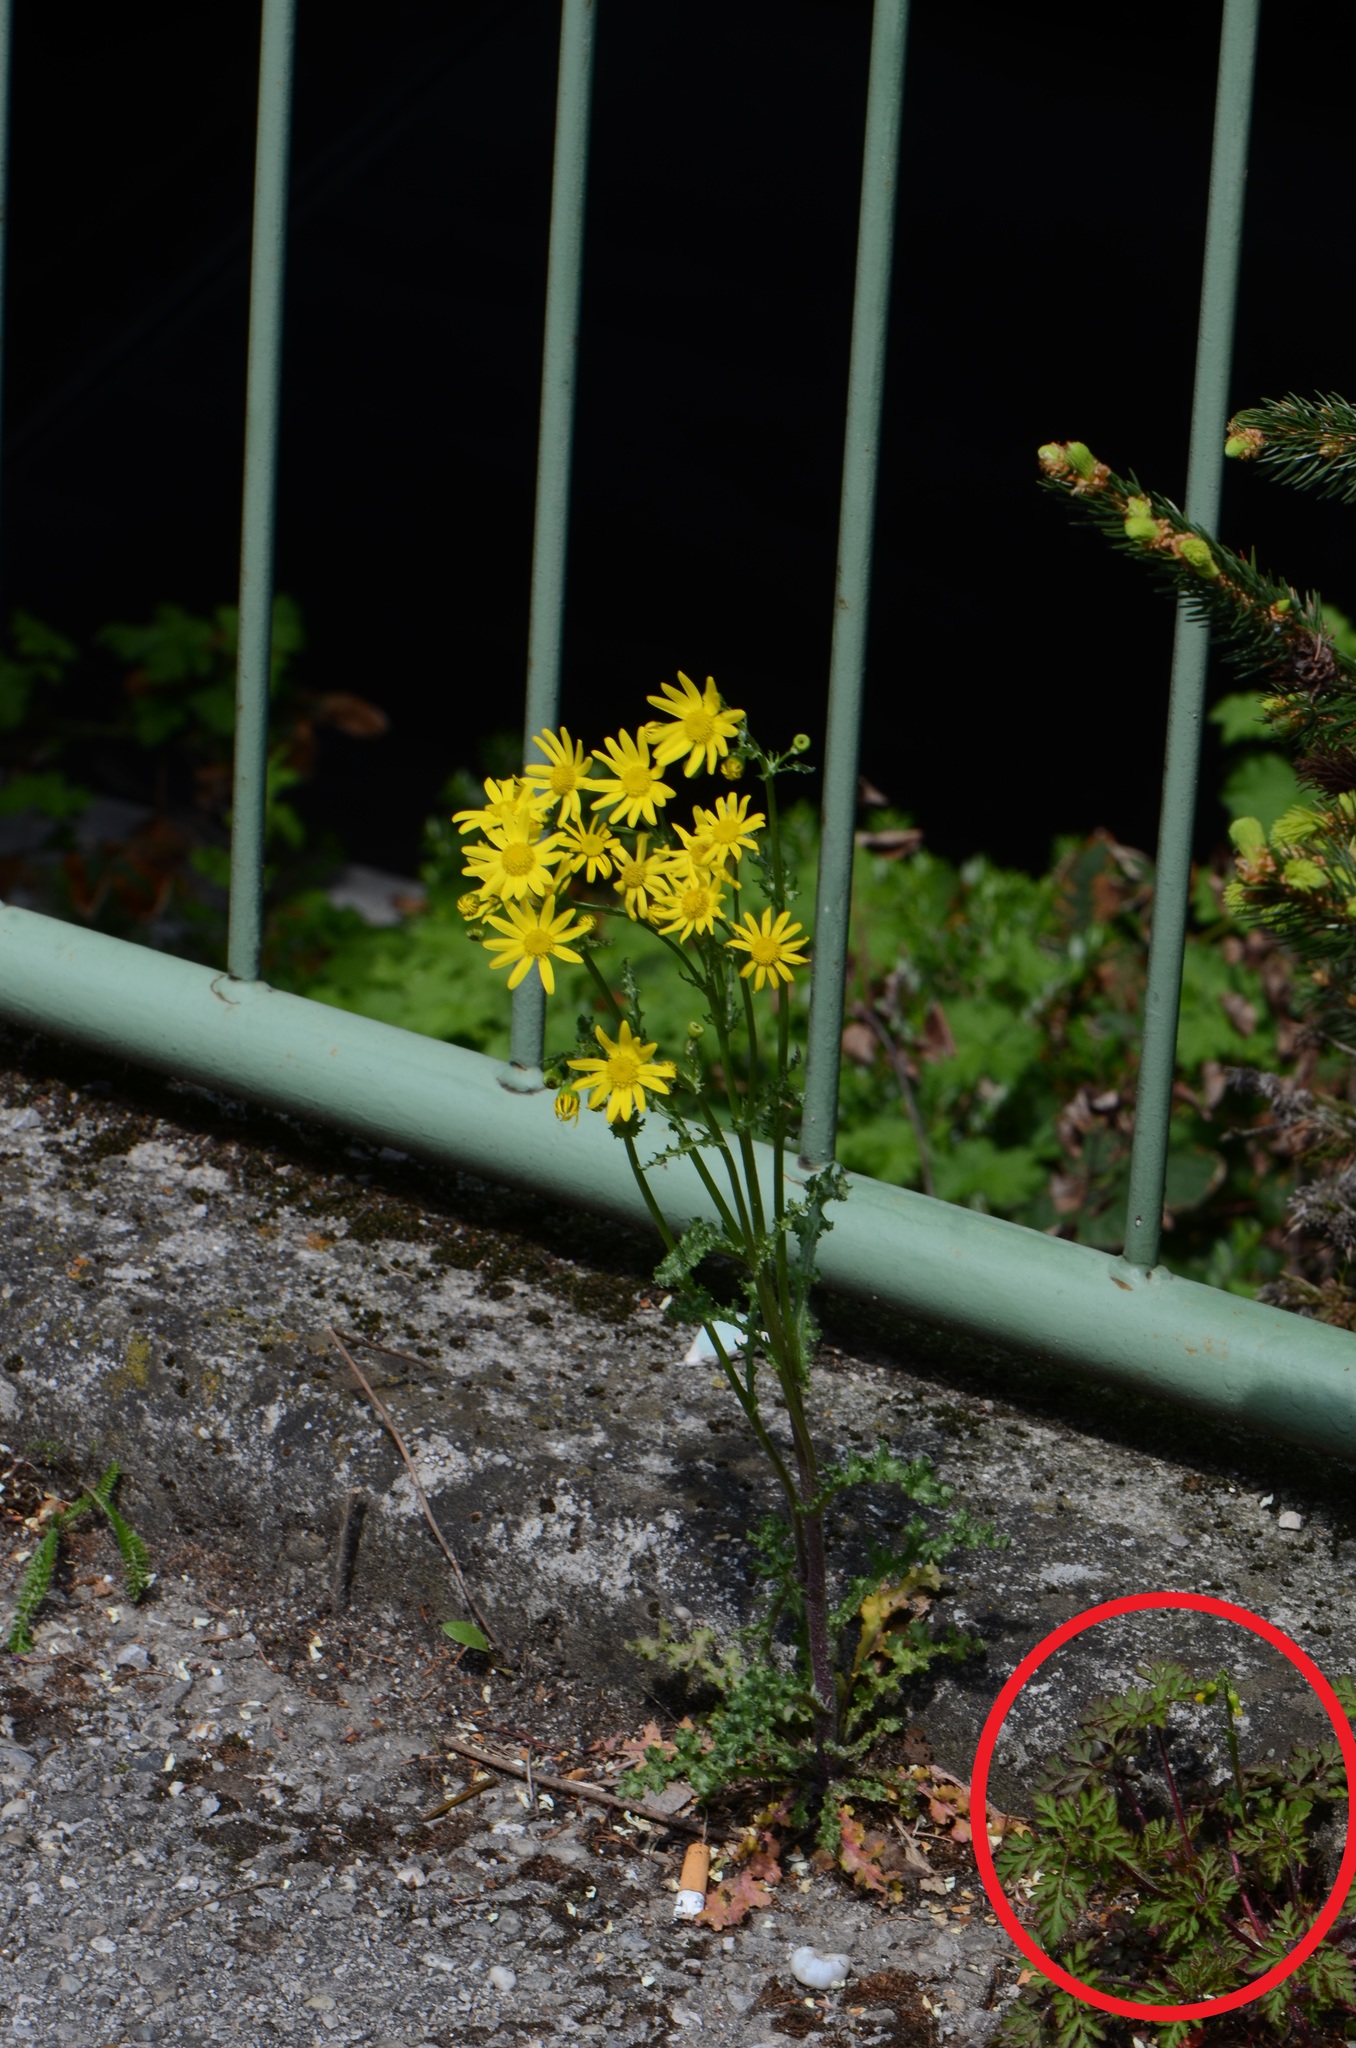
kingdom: Plantae
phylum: Tracheophyta
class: Magnoliopsida
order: Geraniales
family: Geraniaceae
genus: Geranium
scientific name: Geranium robertianum
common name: Herb-robert
